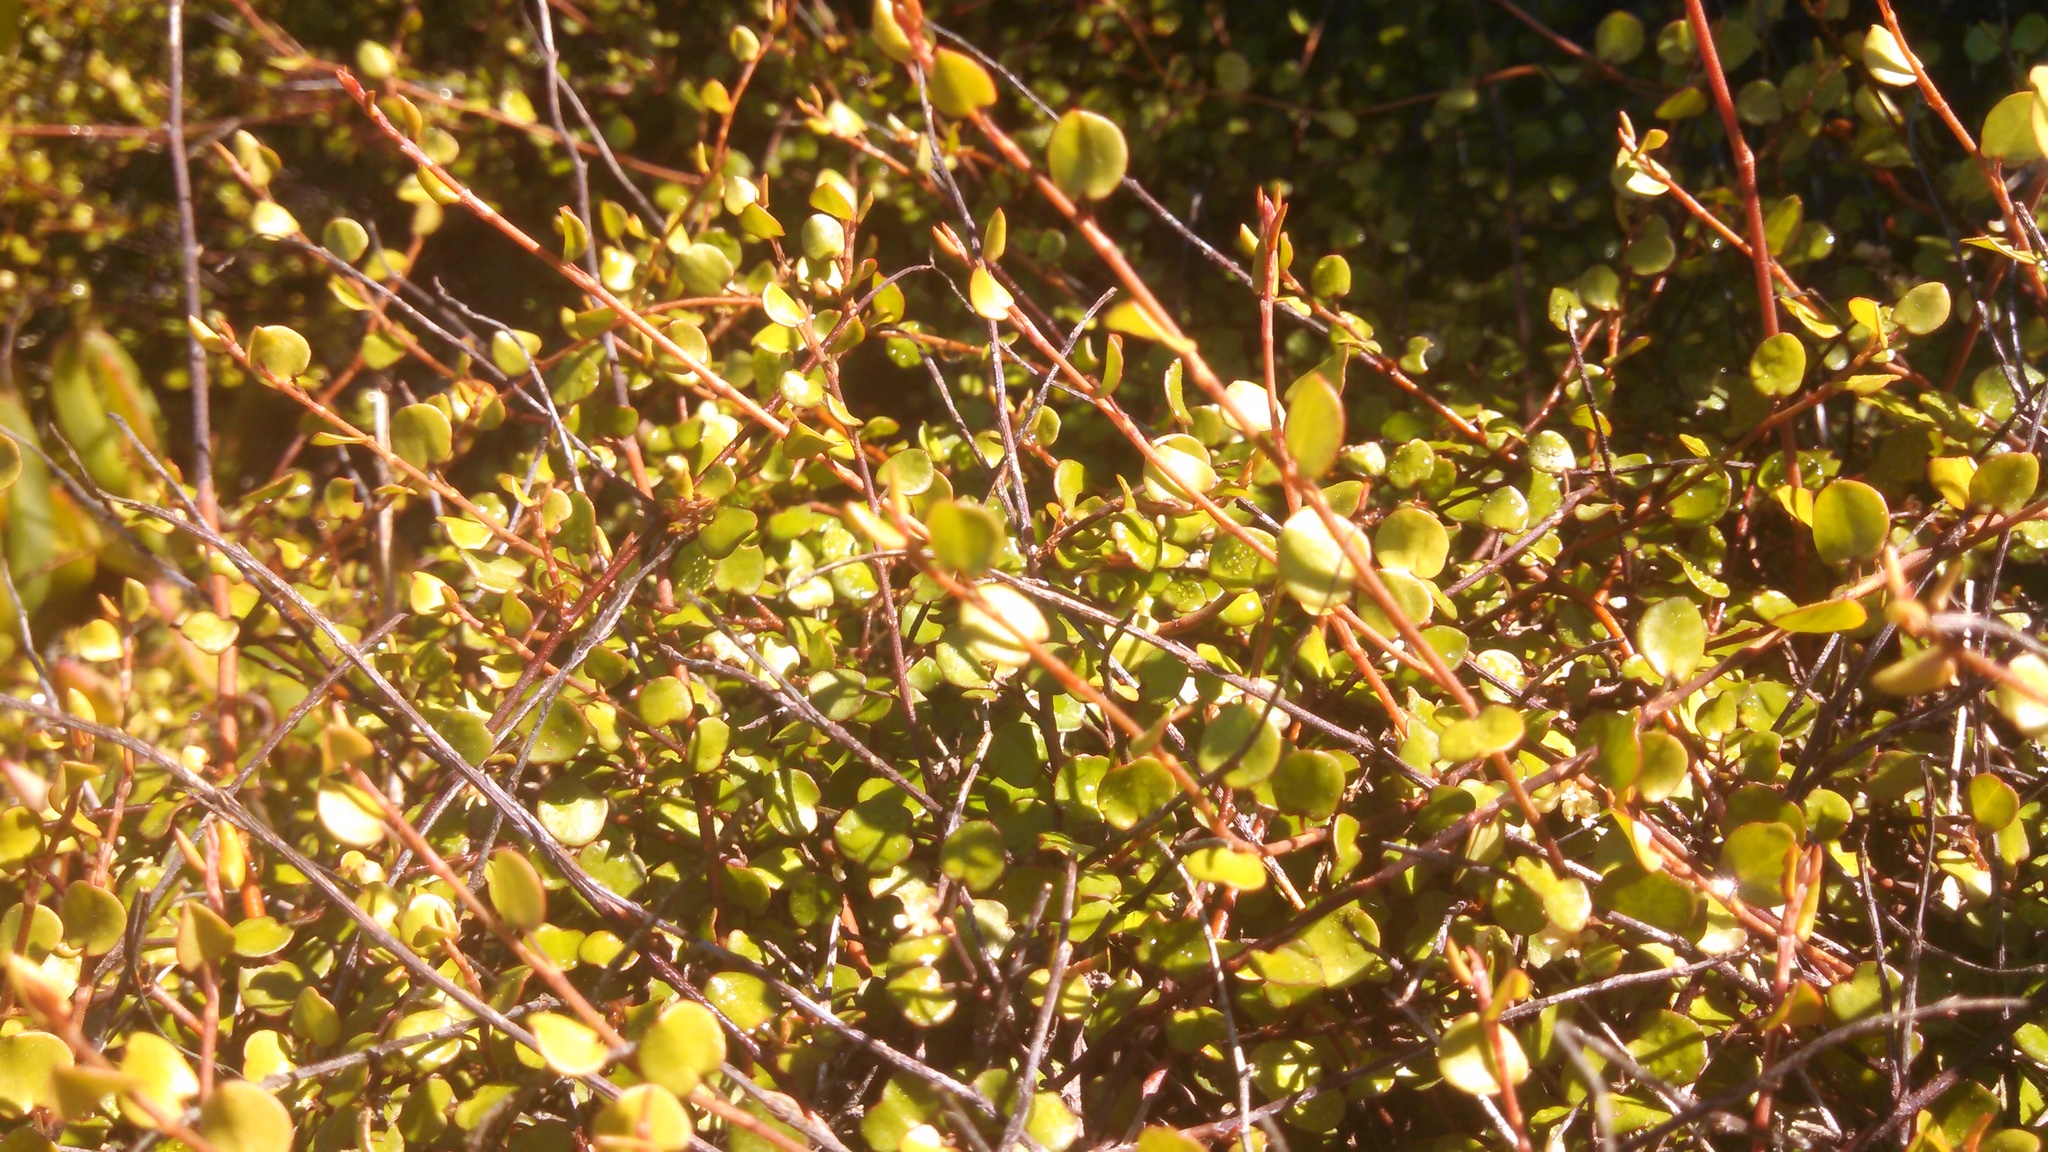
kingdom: Plantae
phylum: Tracheophyta
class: Magnoliopsida
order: Caryophyllales
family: Polygonaceae
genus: Muehlenbeckia
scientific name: Muehlenbeckia complexa
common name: Wireplant
